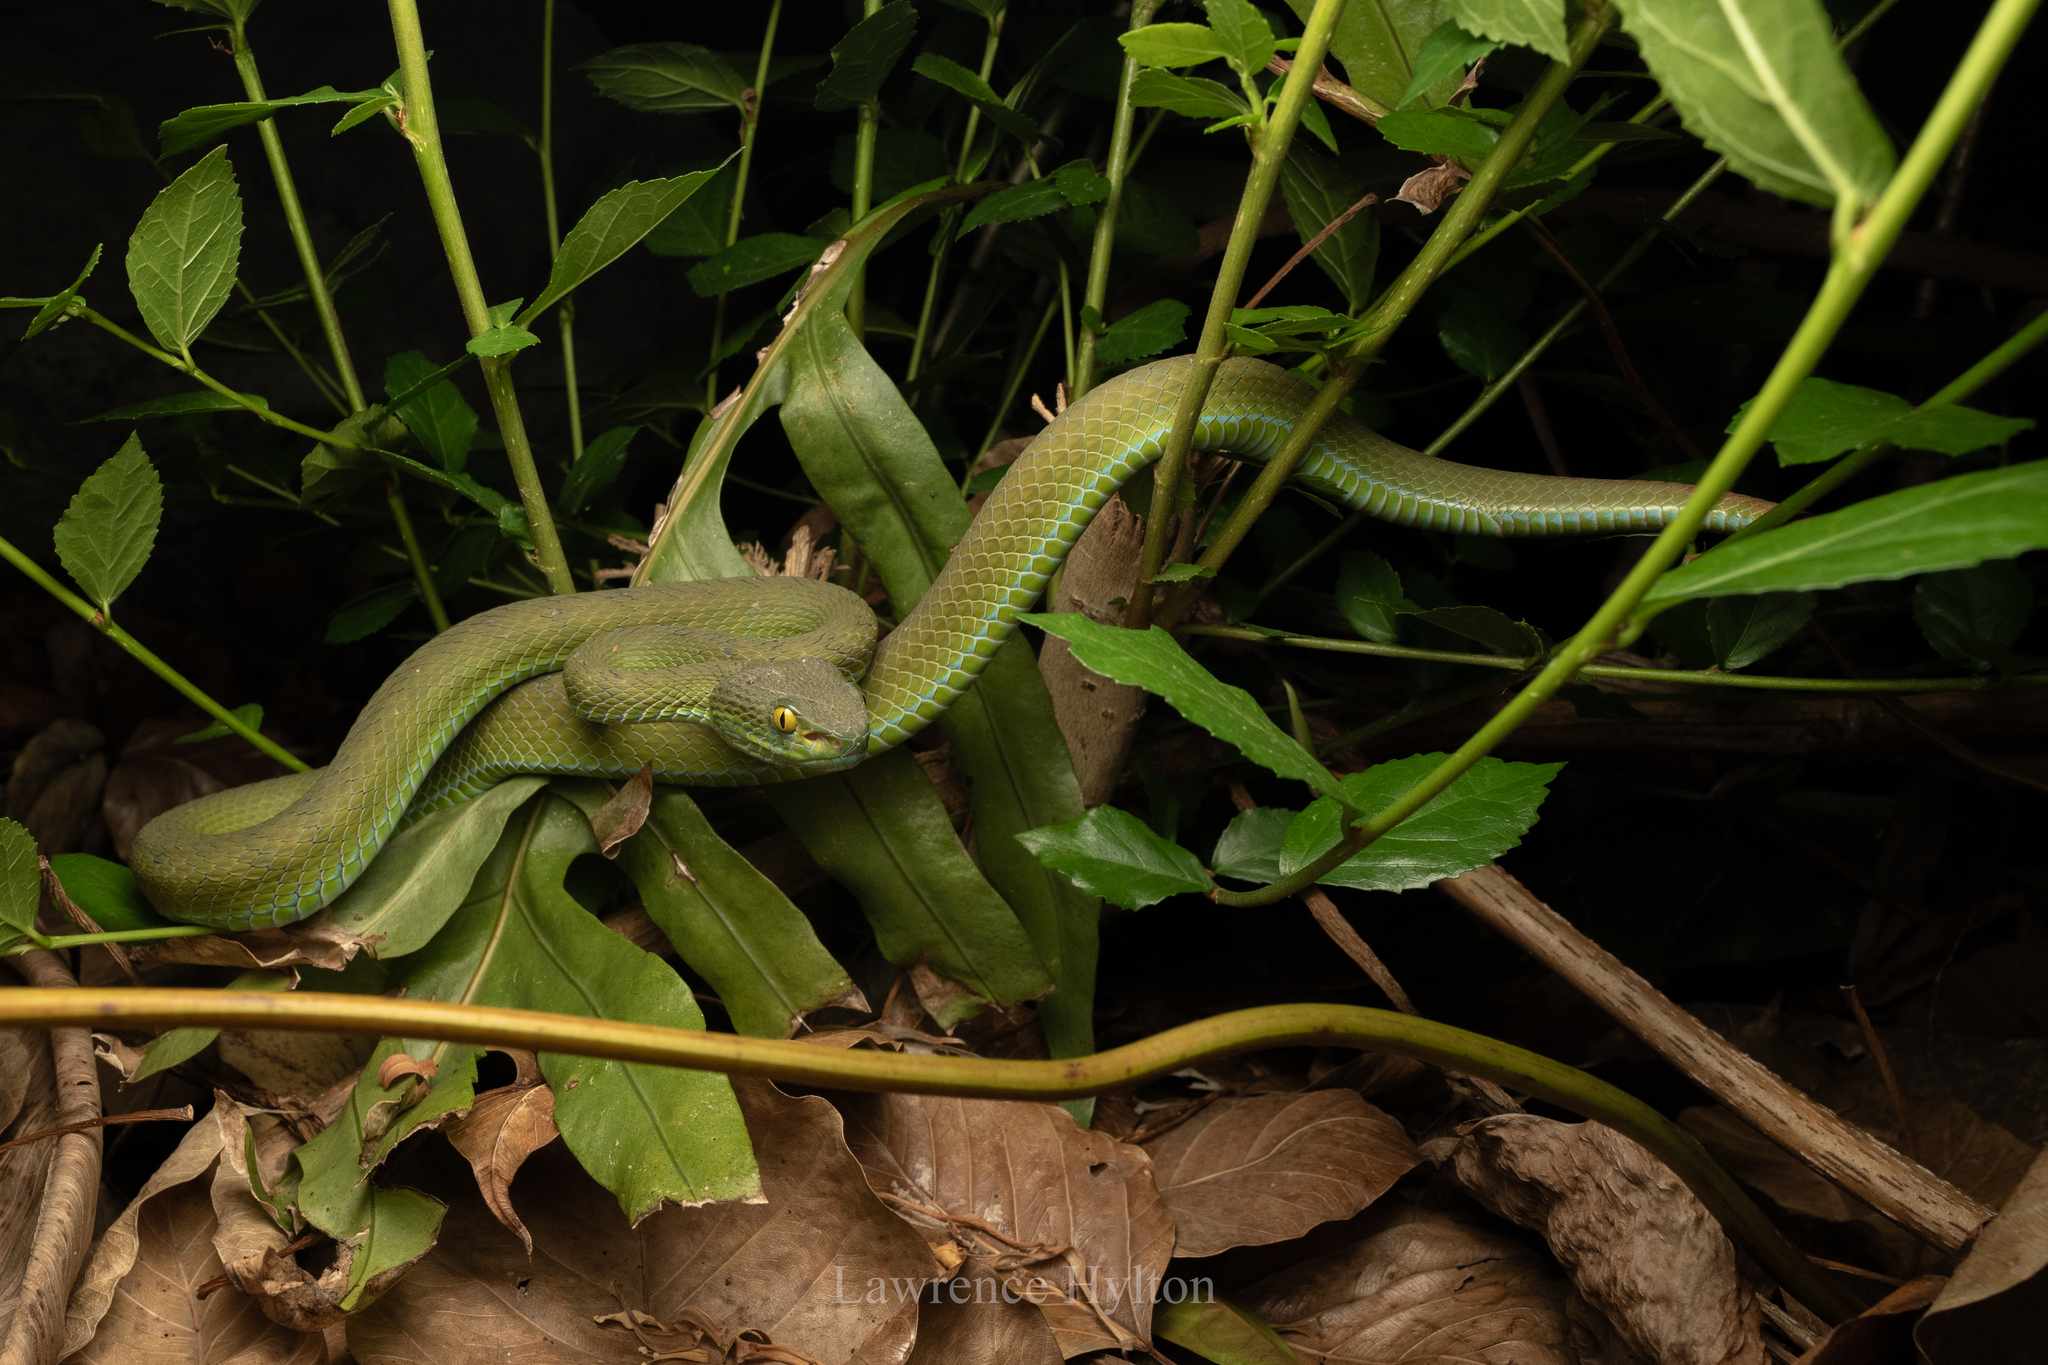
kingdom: Animalia
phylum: Chordata
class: Squamata
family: Viperidae
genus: Trimeresurus
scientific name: Trimeresurus macrops
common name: Kramer's pit viper
